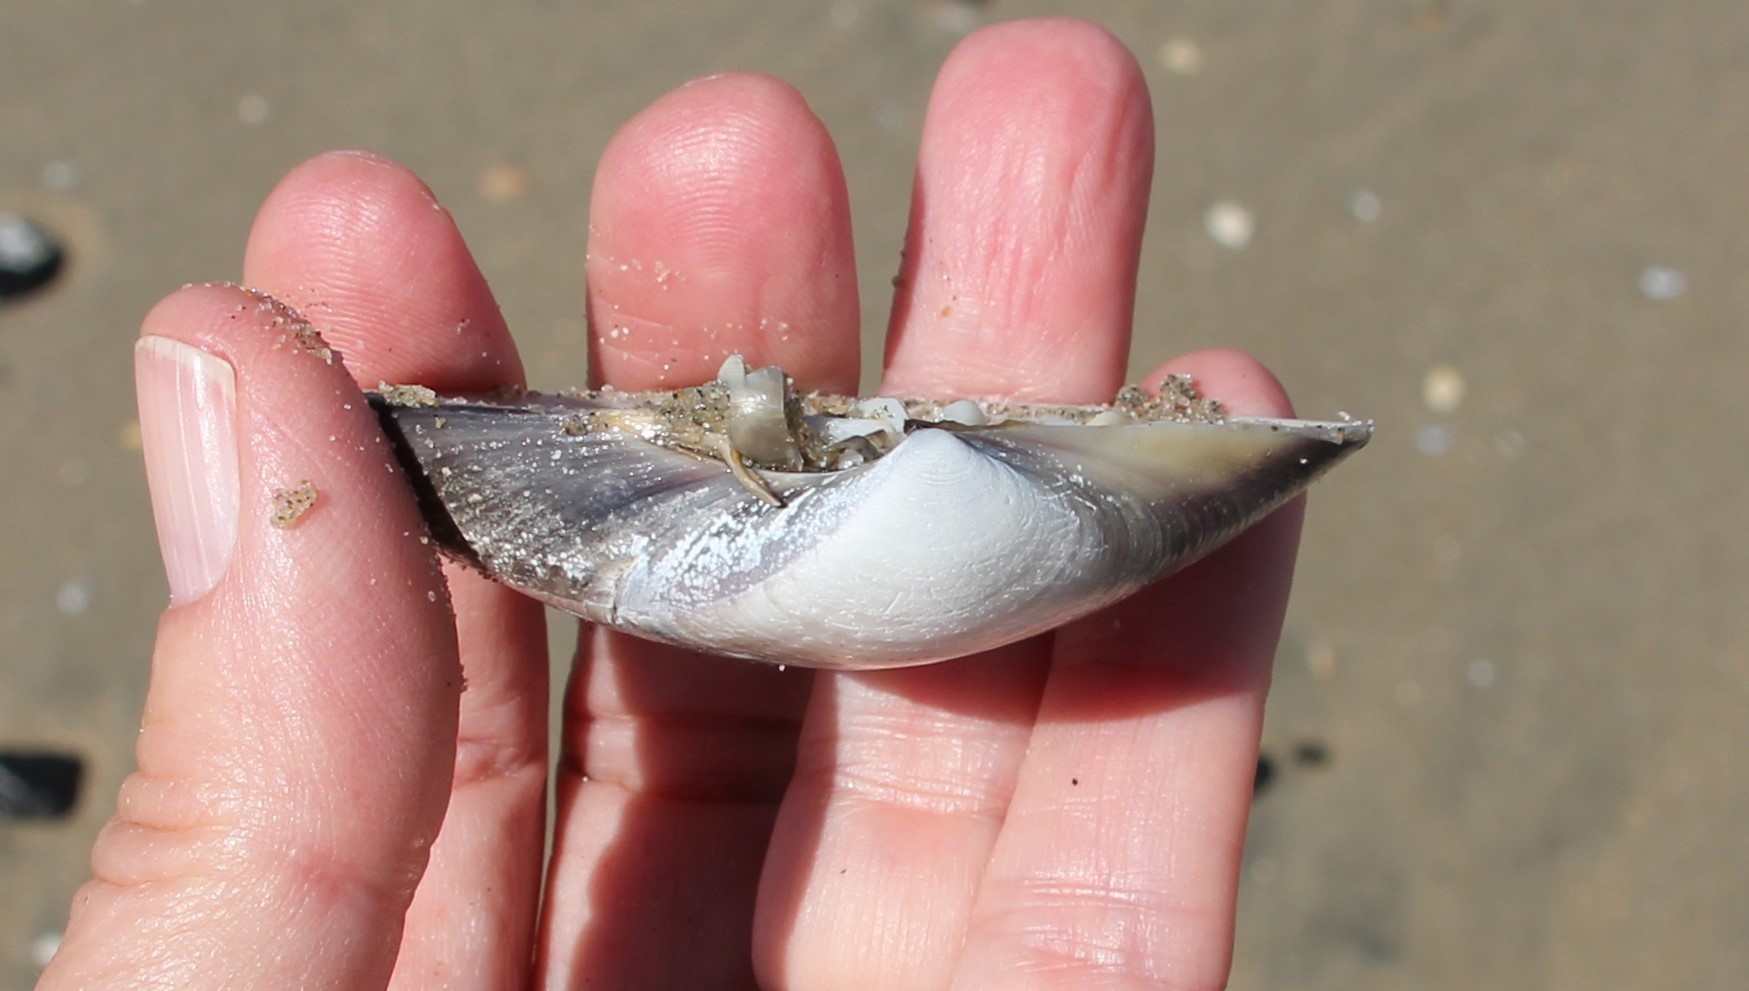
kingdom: Animalia
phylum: Mollusca
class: Bivalvia
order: Venerida
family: Veneridae
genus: Tivela
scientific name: Tivela stultorum
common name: Pismo clam
